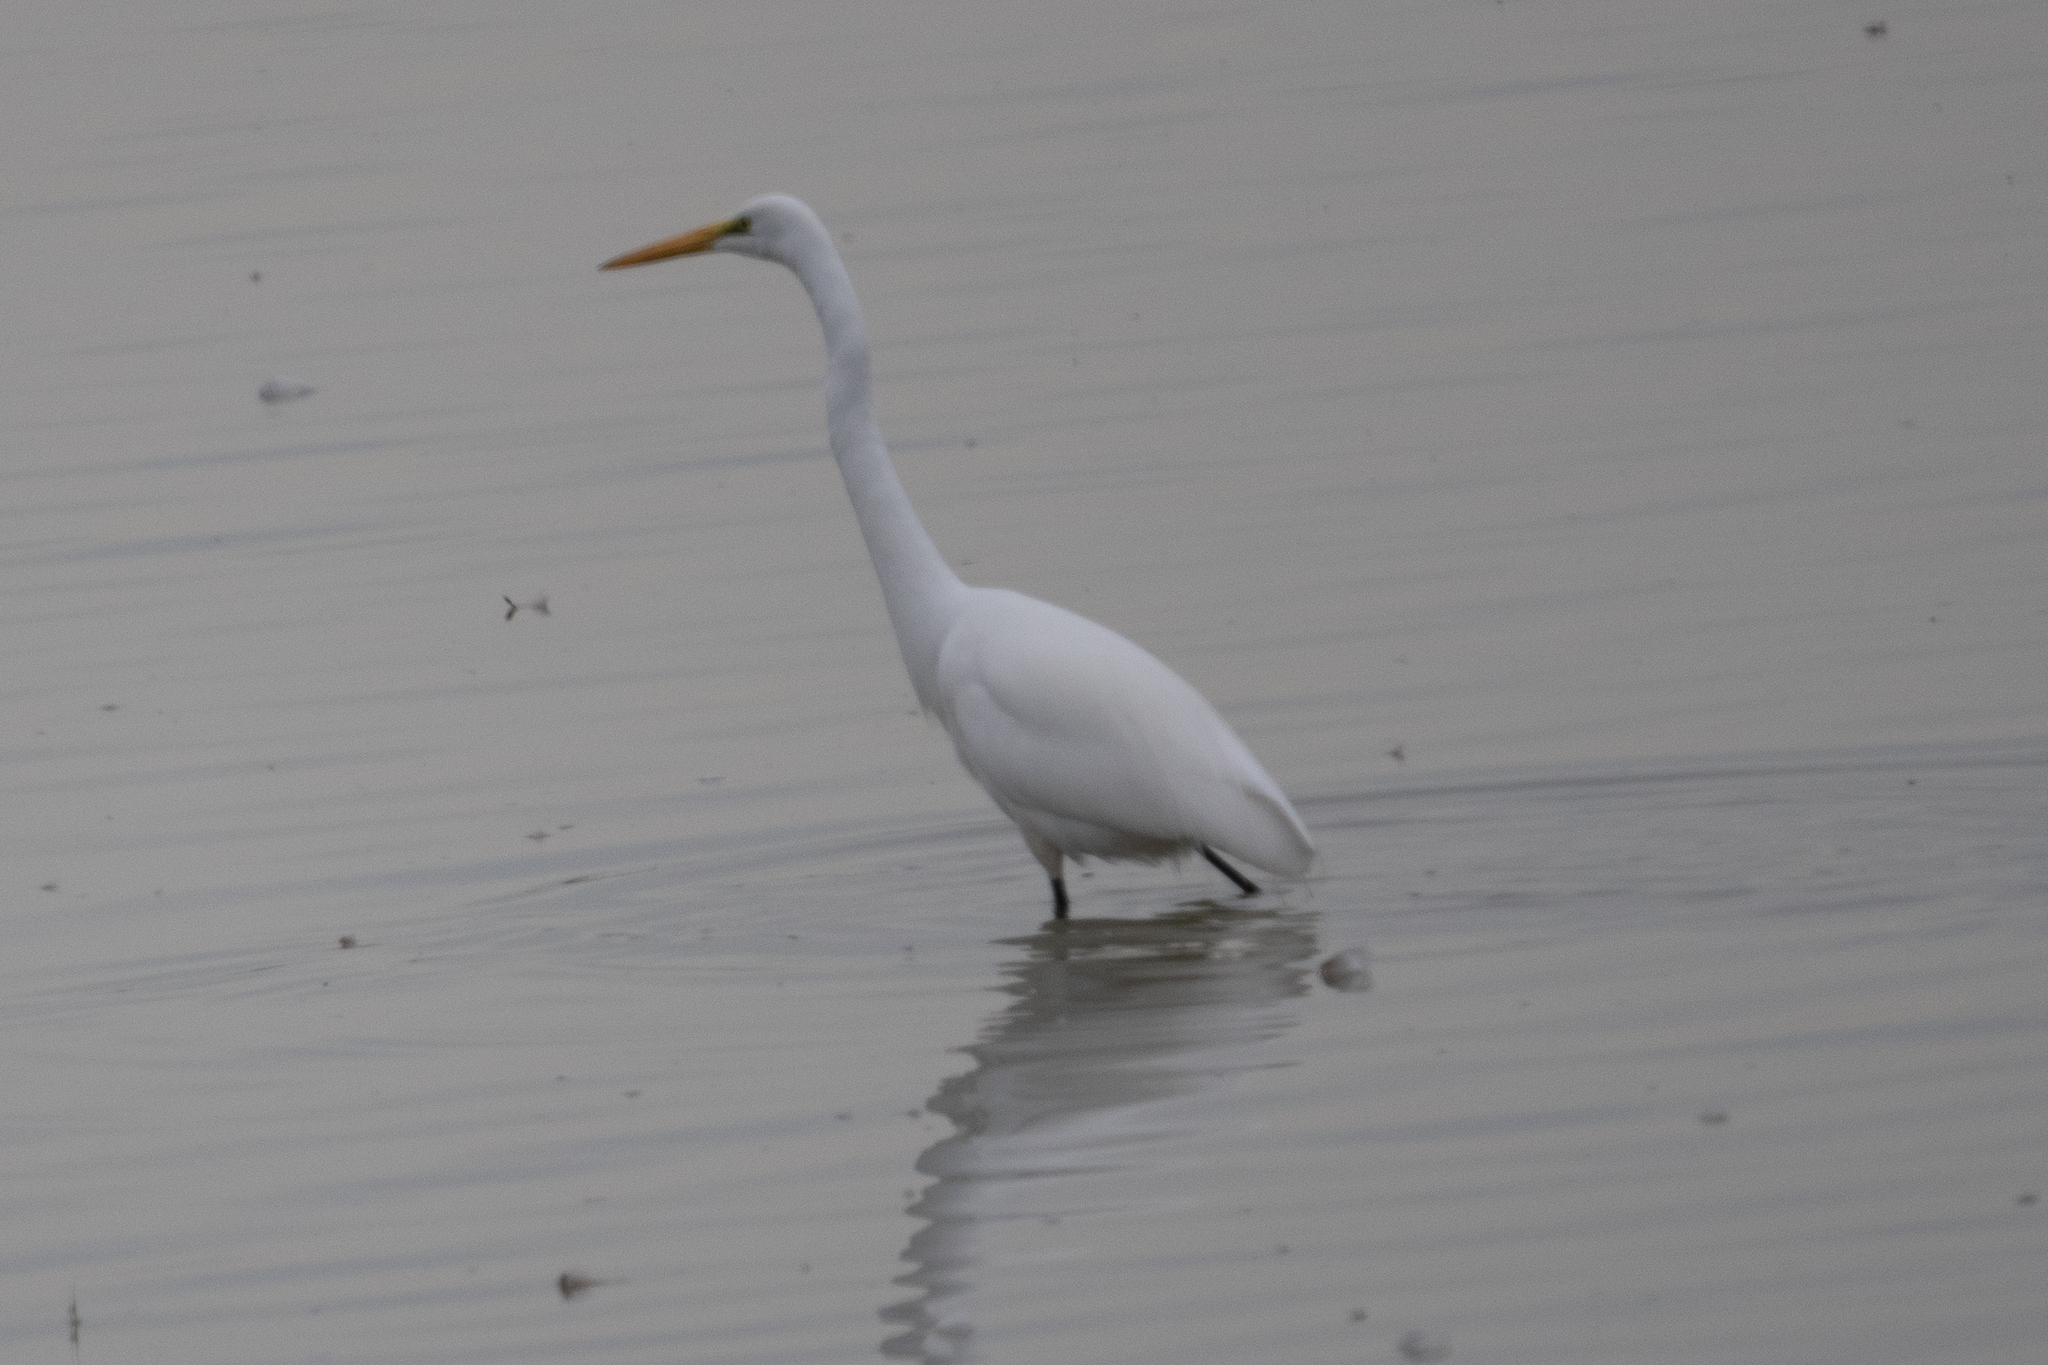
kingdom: Animalia
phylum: Chordata
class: Aves
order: Pelecaniformes
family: Ardeidae
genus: Ardea
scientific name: Ardea alba
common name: Great egret
